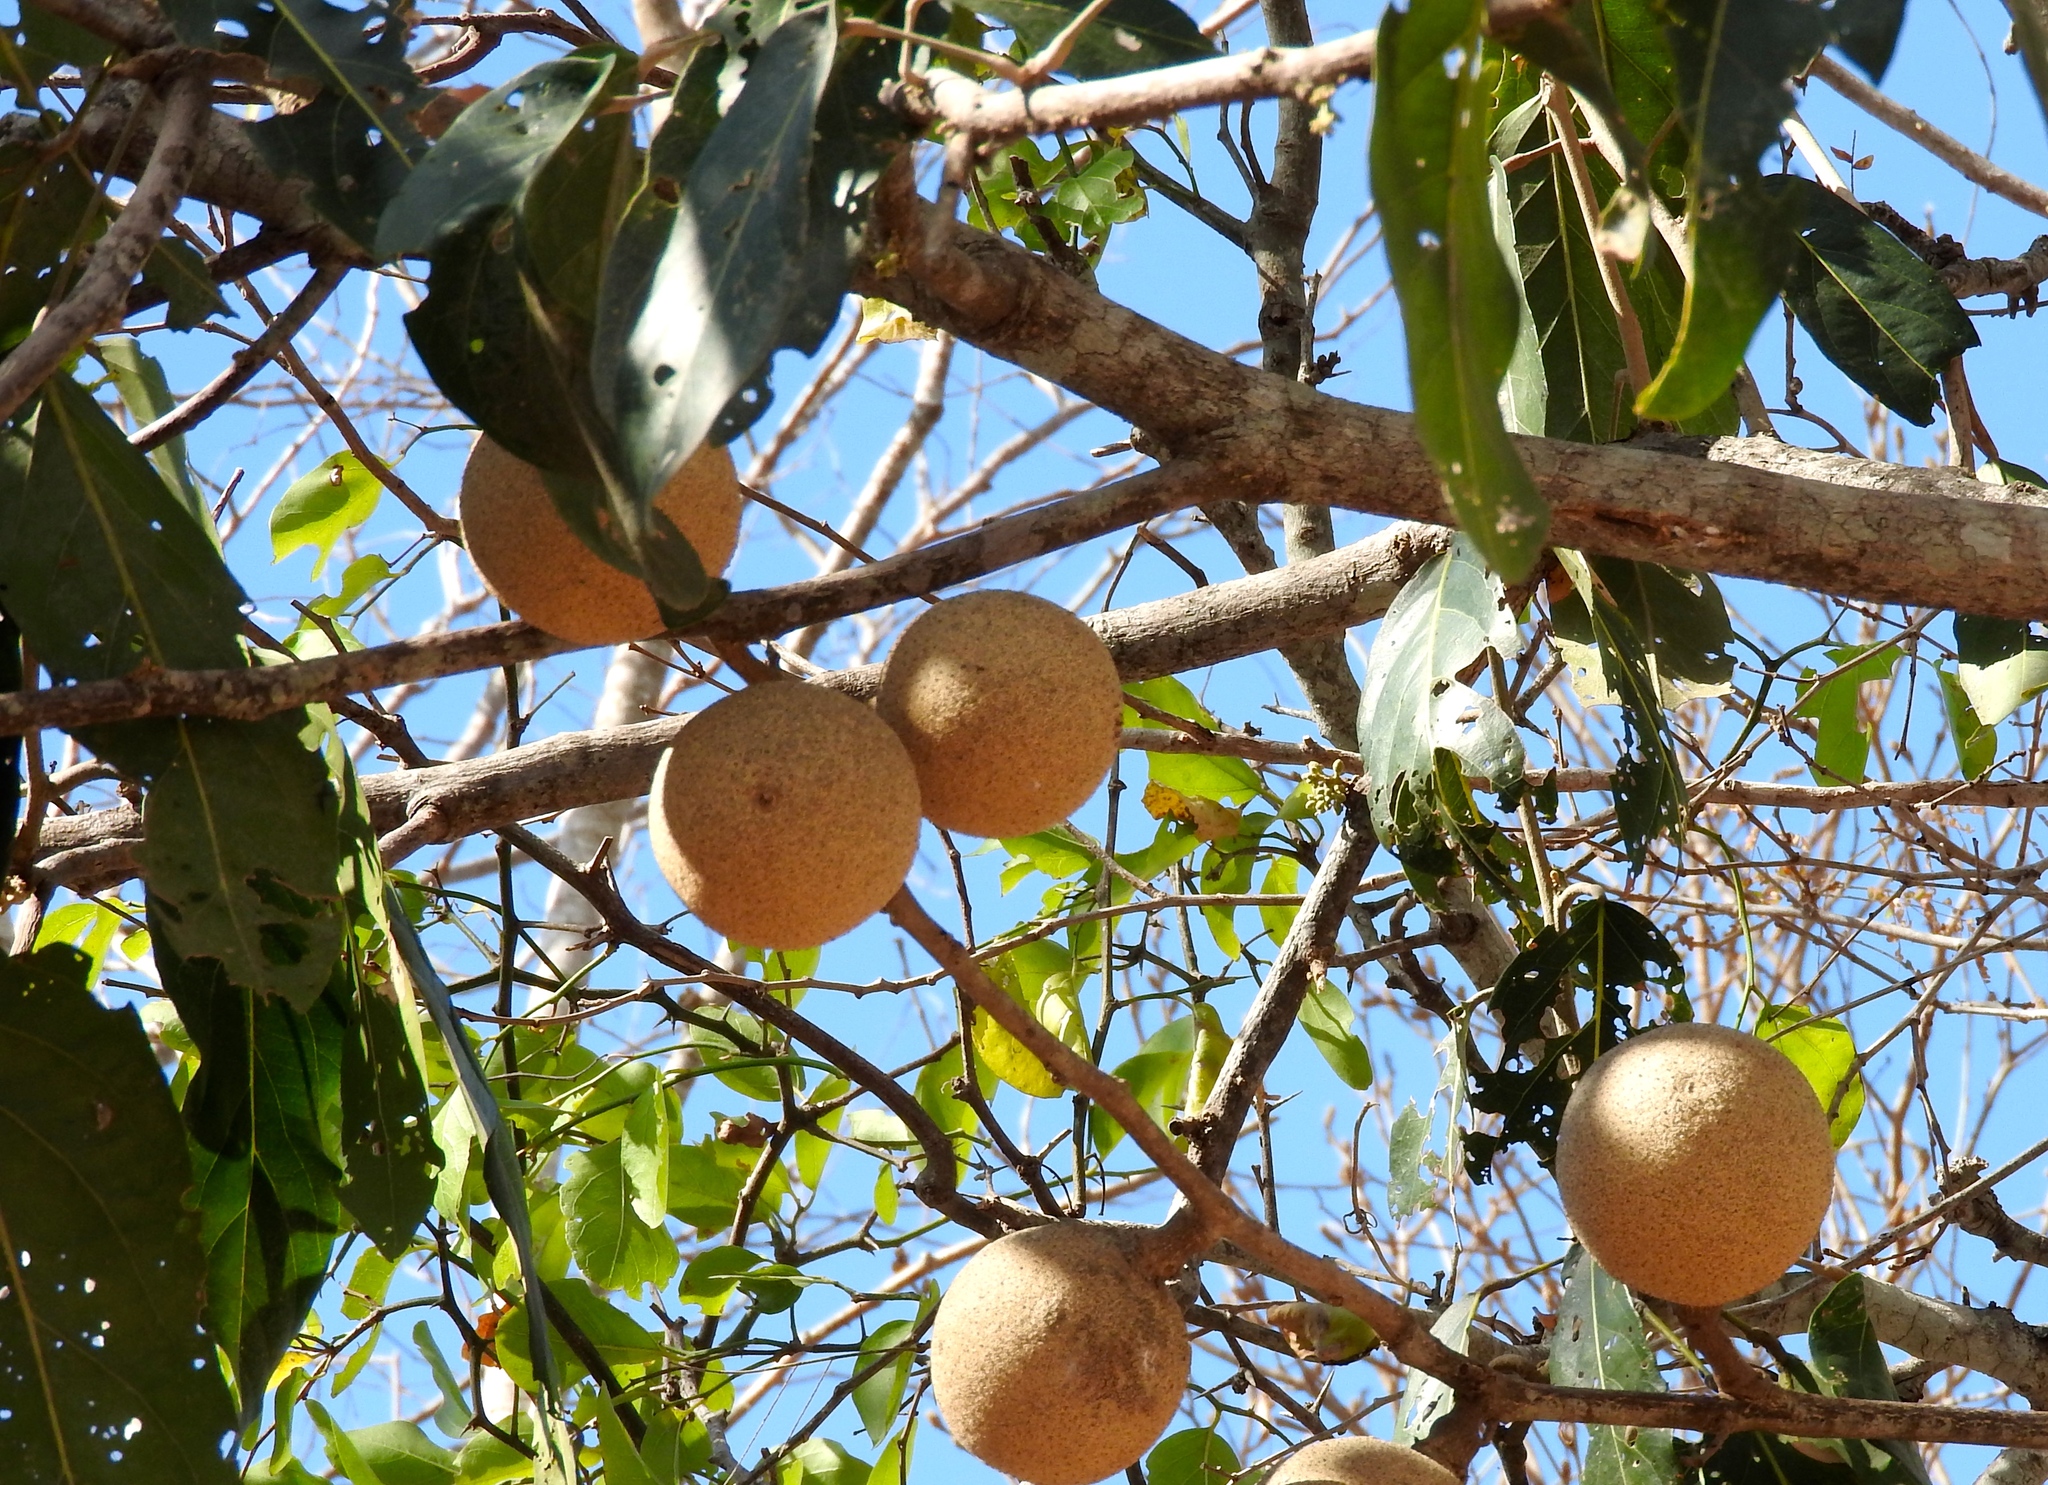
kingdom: Plantae
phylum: Tracheophyta
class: Magnoliopsida
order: Brassicales
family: Capparaceae
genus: Morisonia
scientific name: Morisonia americana
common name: Wild mesple
